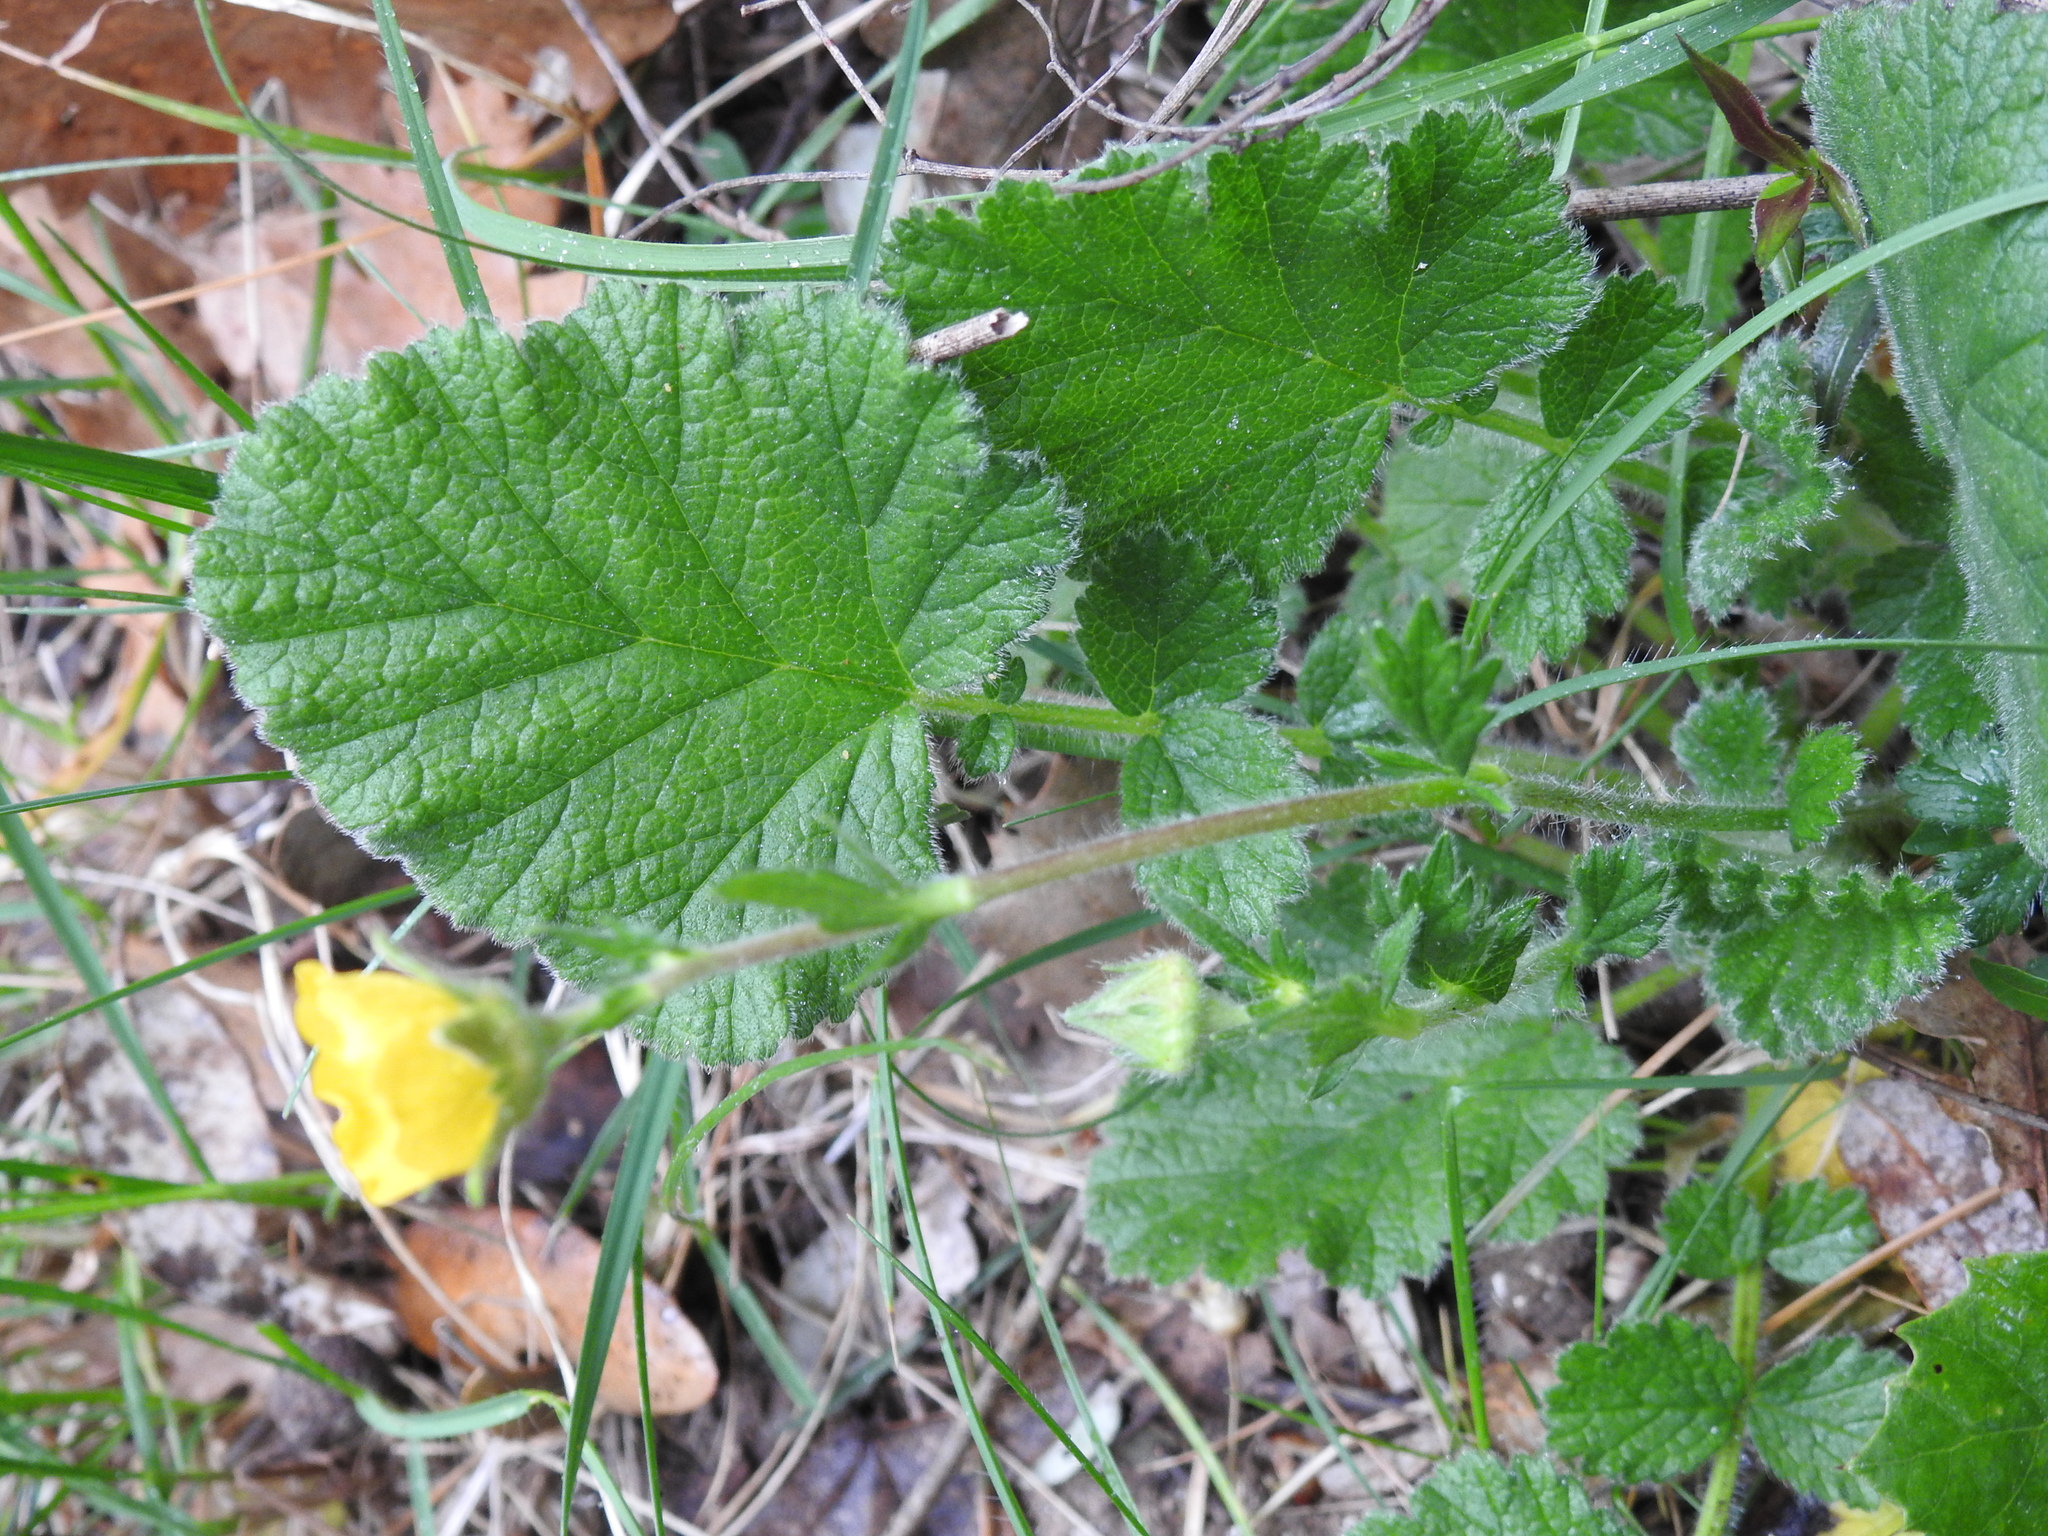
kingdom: Plantae
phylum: Tracheophyta
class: Magnoliopsida
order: Rosales
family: Rosaceae
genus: Geum
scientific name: Geum sylvaticum
